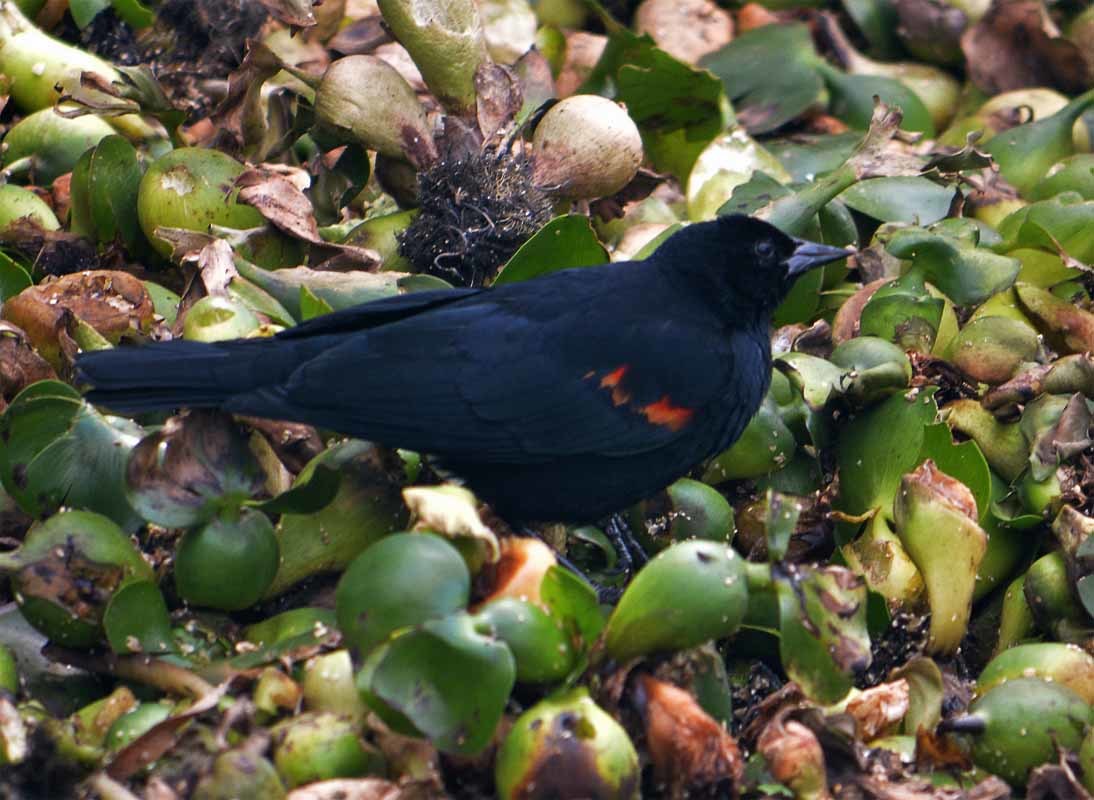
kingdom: Animalia
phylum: Chordata
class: Aves
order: Passeriformes
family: Icteridae
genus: Agelaius
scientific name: Agelaius phoeniceus
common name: Red-winged blackbird
